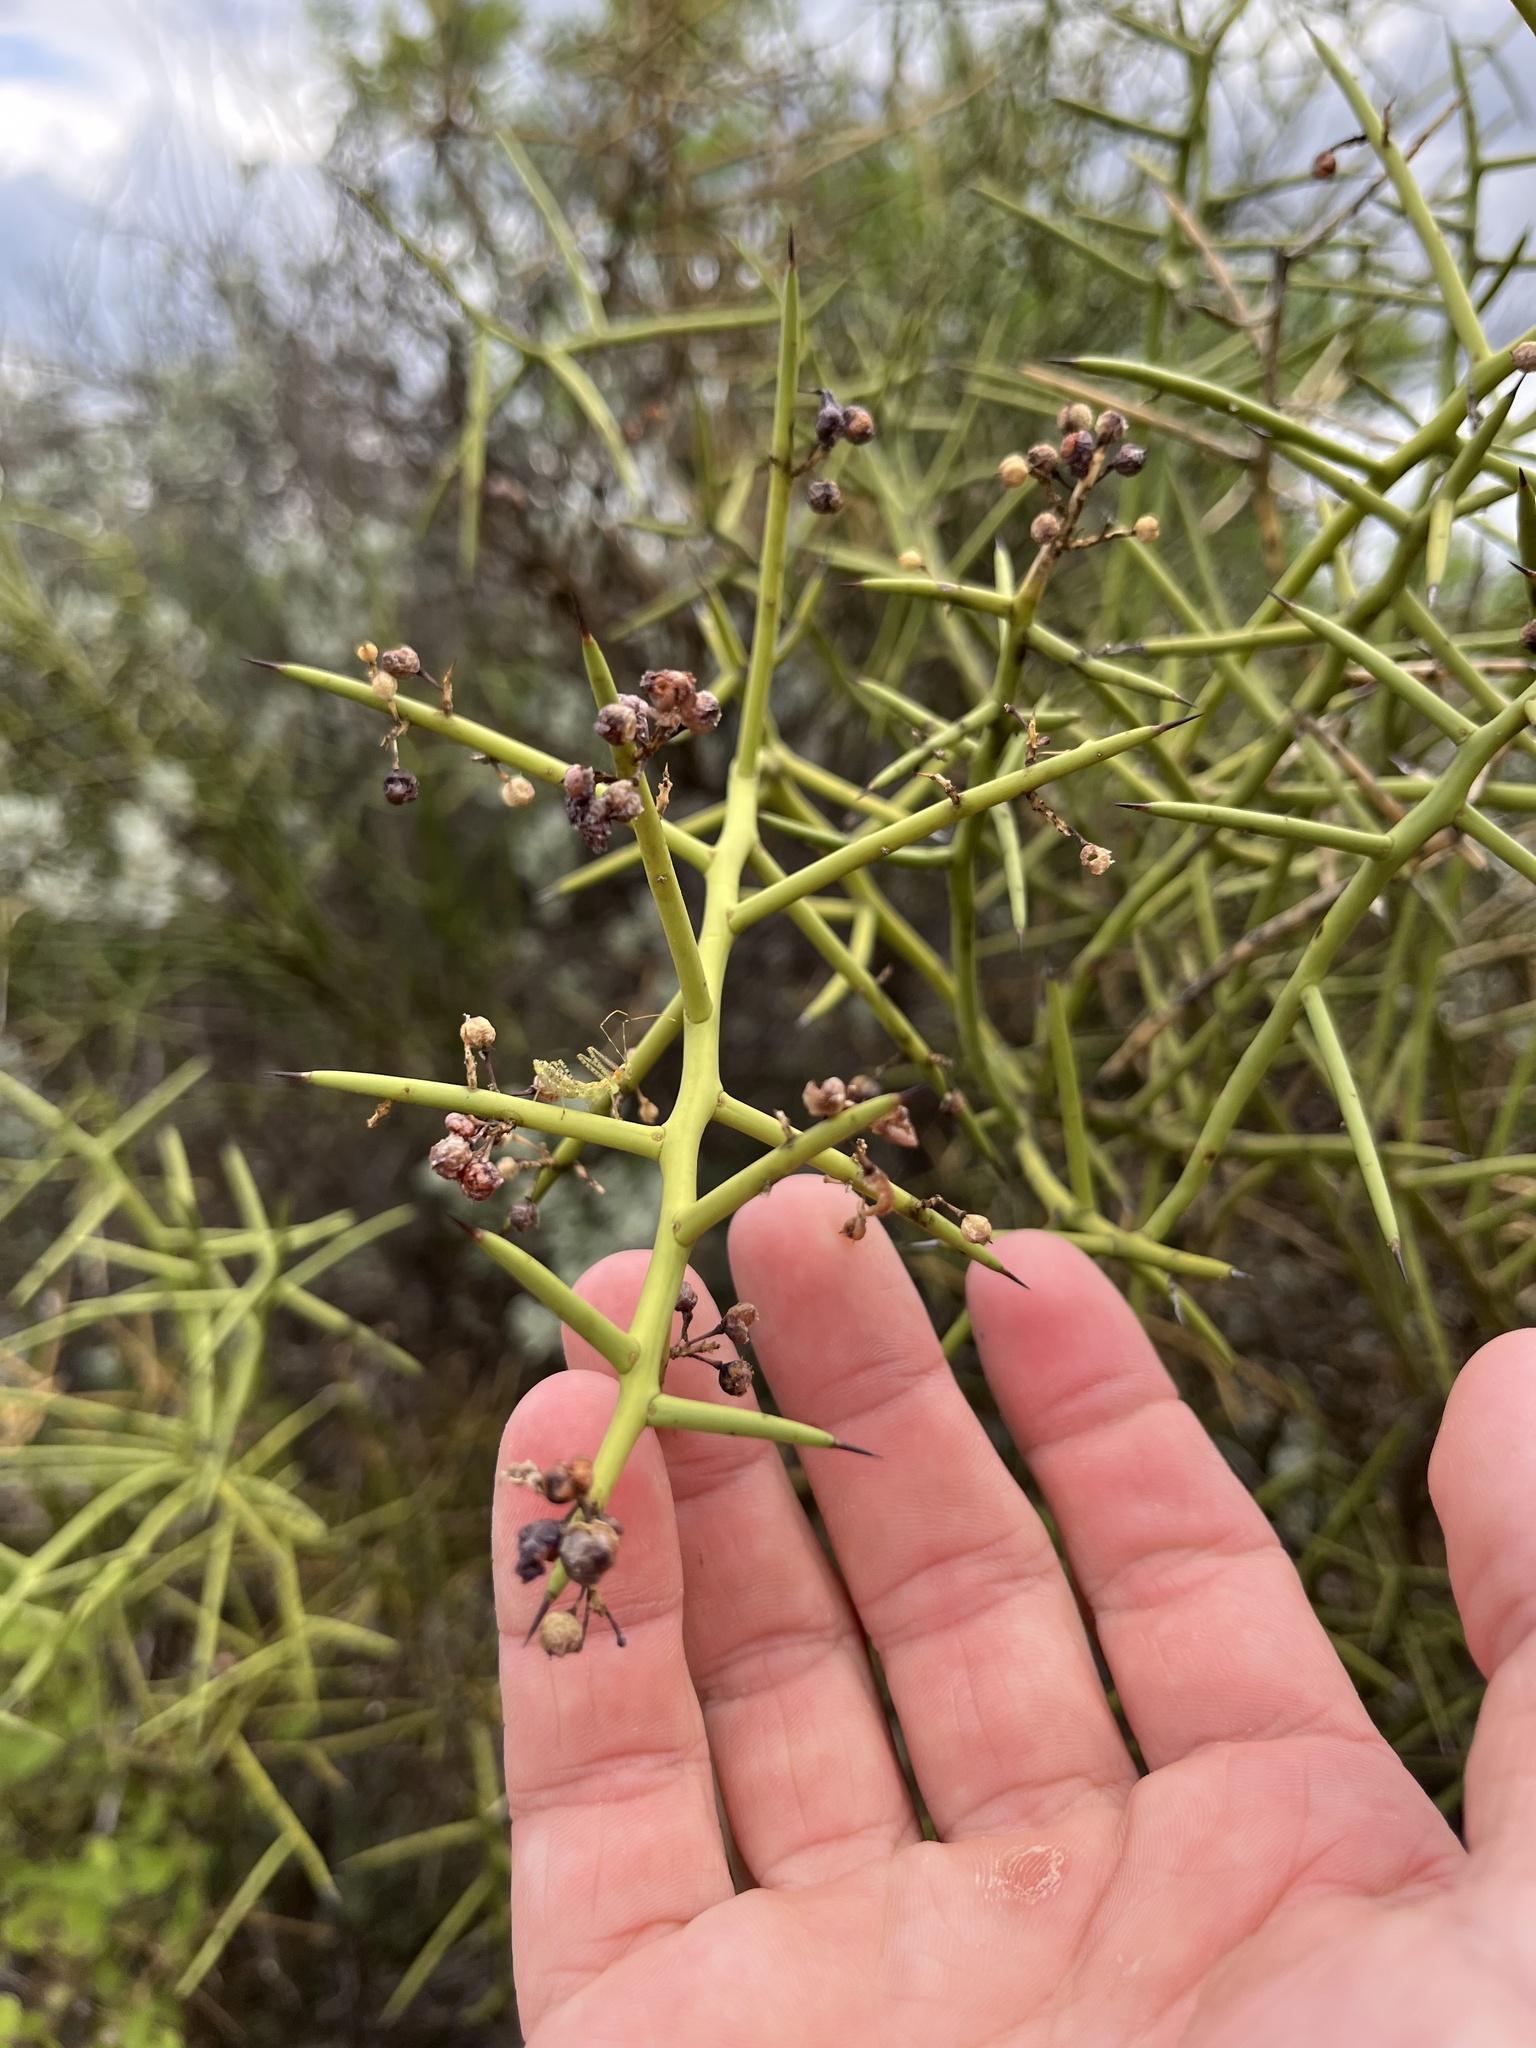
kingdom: Plantae
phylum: Tracheophyta
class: Magnoliopsida
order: Brassicales
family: Koeberliniaceae
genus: Koeberlinia
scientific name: Koeberlinia spinosa
